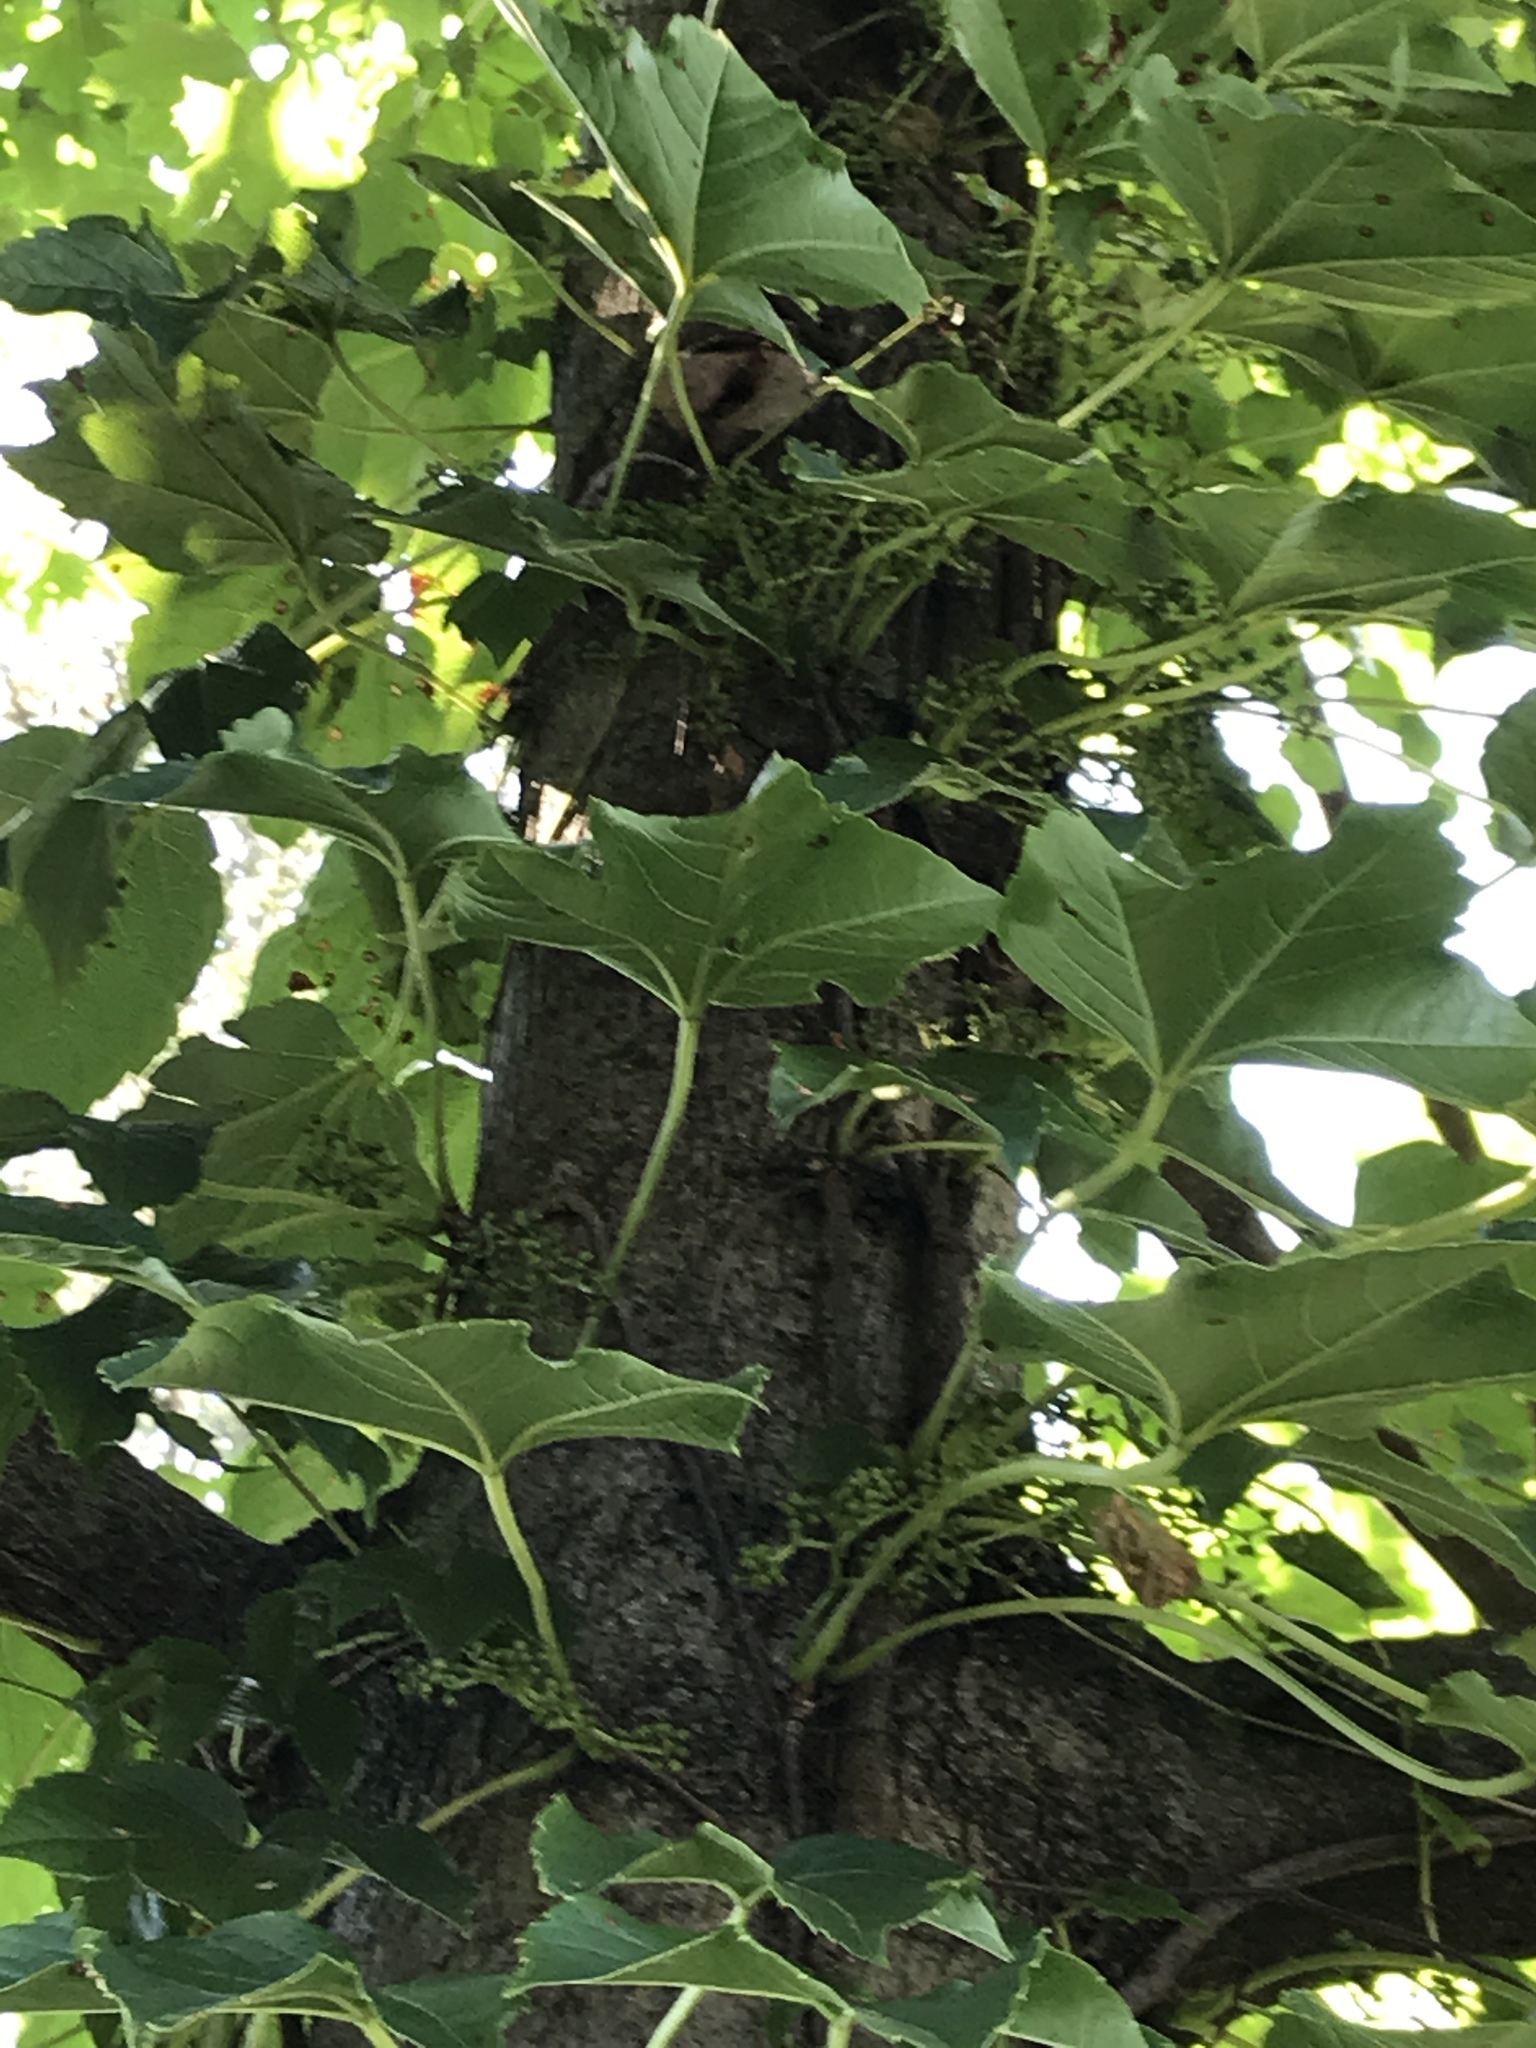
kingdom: Plantae
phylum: Tracheophyta
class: Magnoliopsida
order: Vitales
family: Vitaceae
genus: Parthenocissus
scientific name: Parthenocissus tricuspidata
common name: Boston ivy
